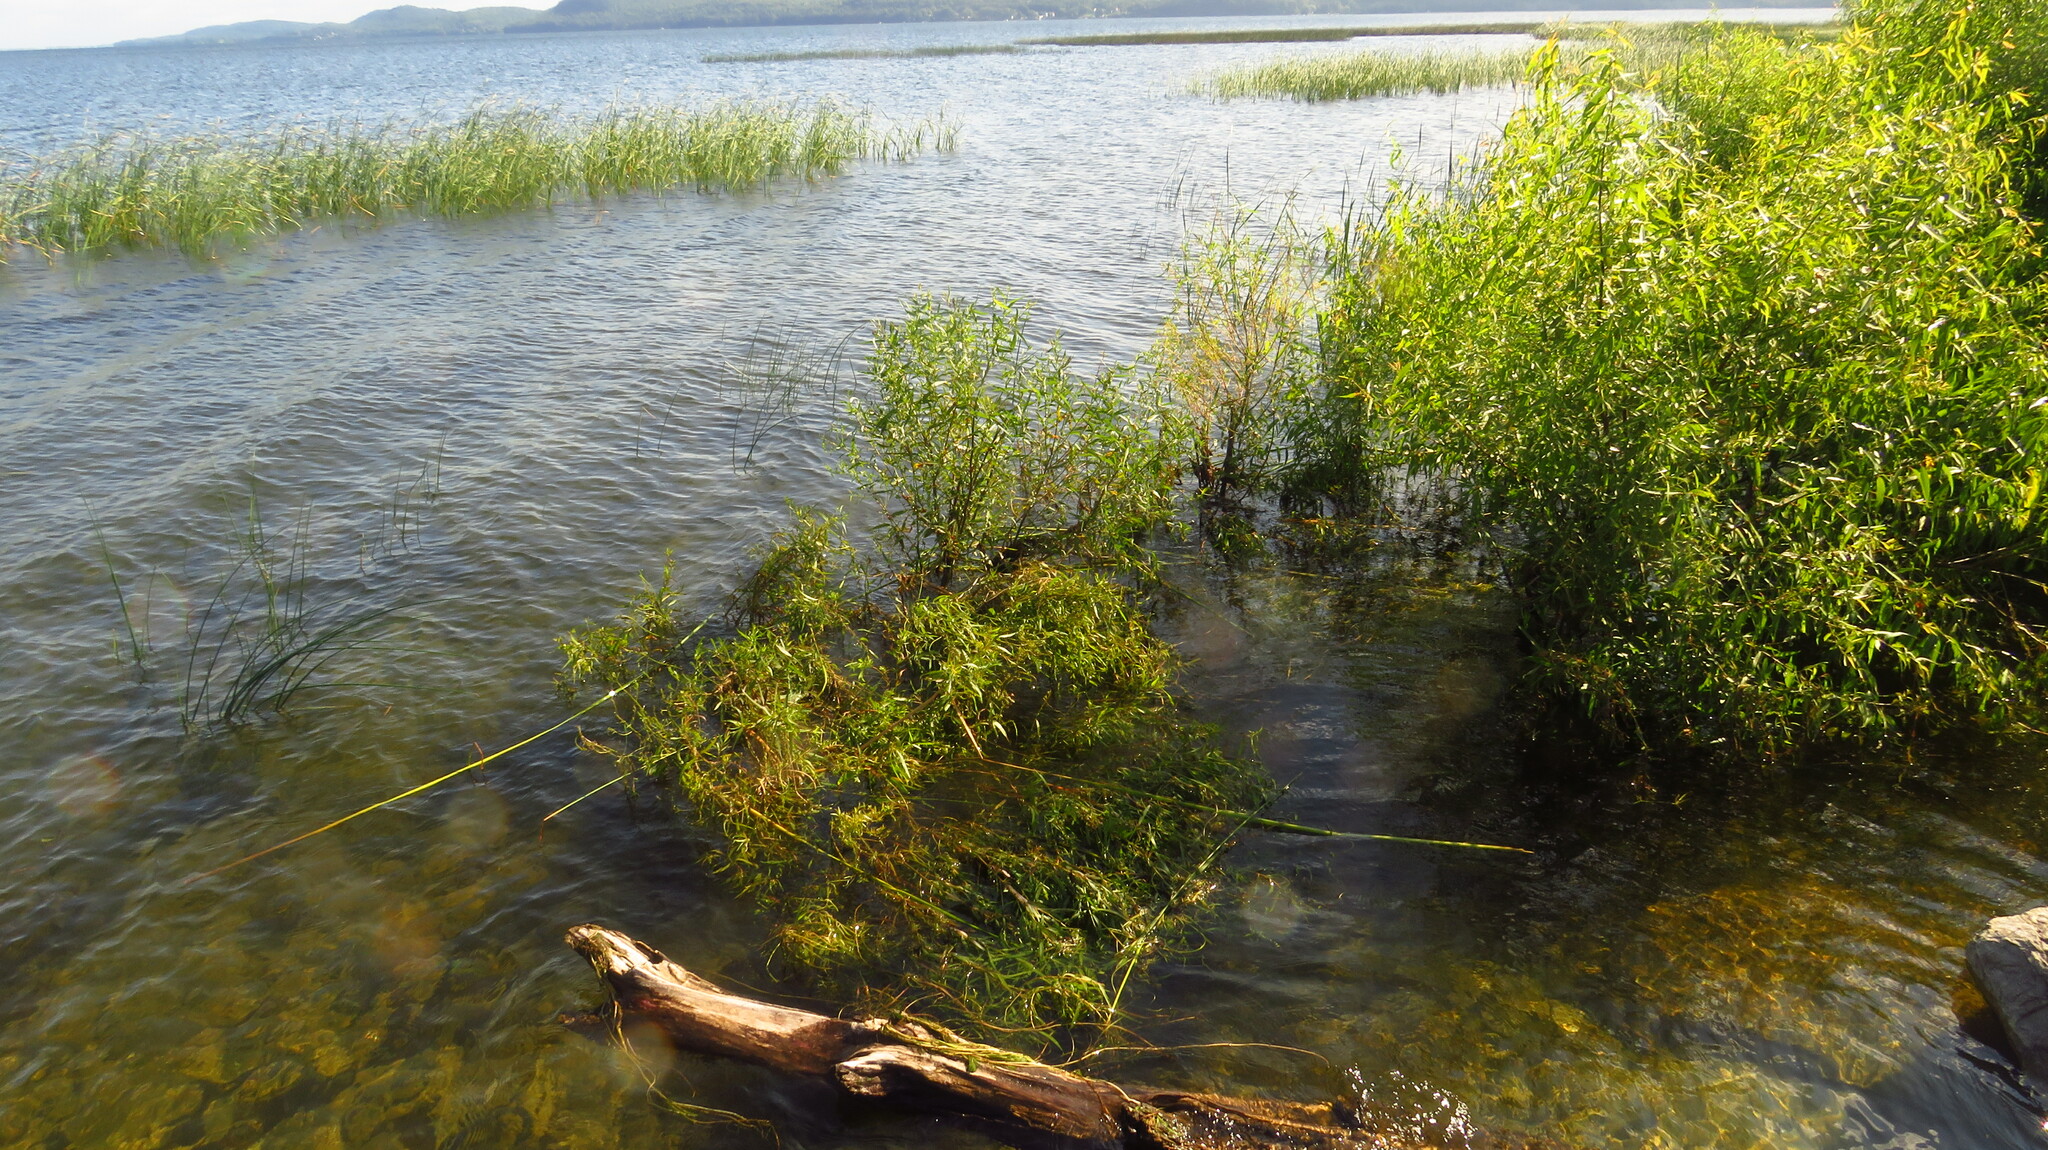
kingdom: Plantae
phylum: Tracheophyta
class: Magnoliopsida
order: Malpighiales
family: Salicaceae
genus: Salix
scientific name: Salix nigra
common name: Black willow
